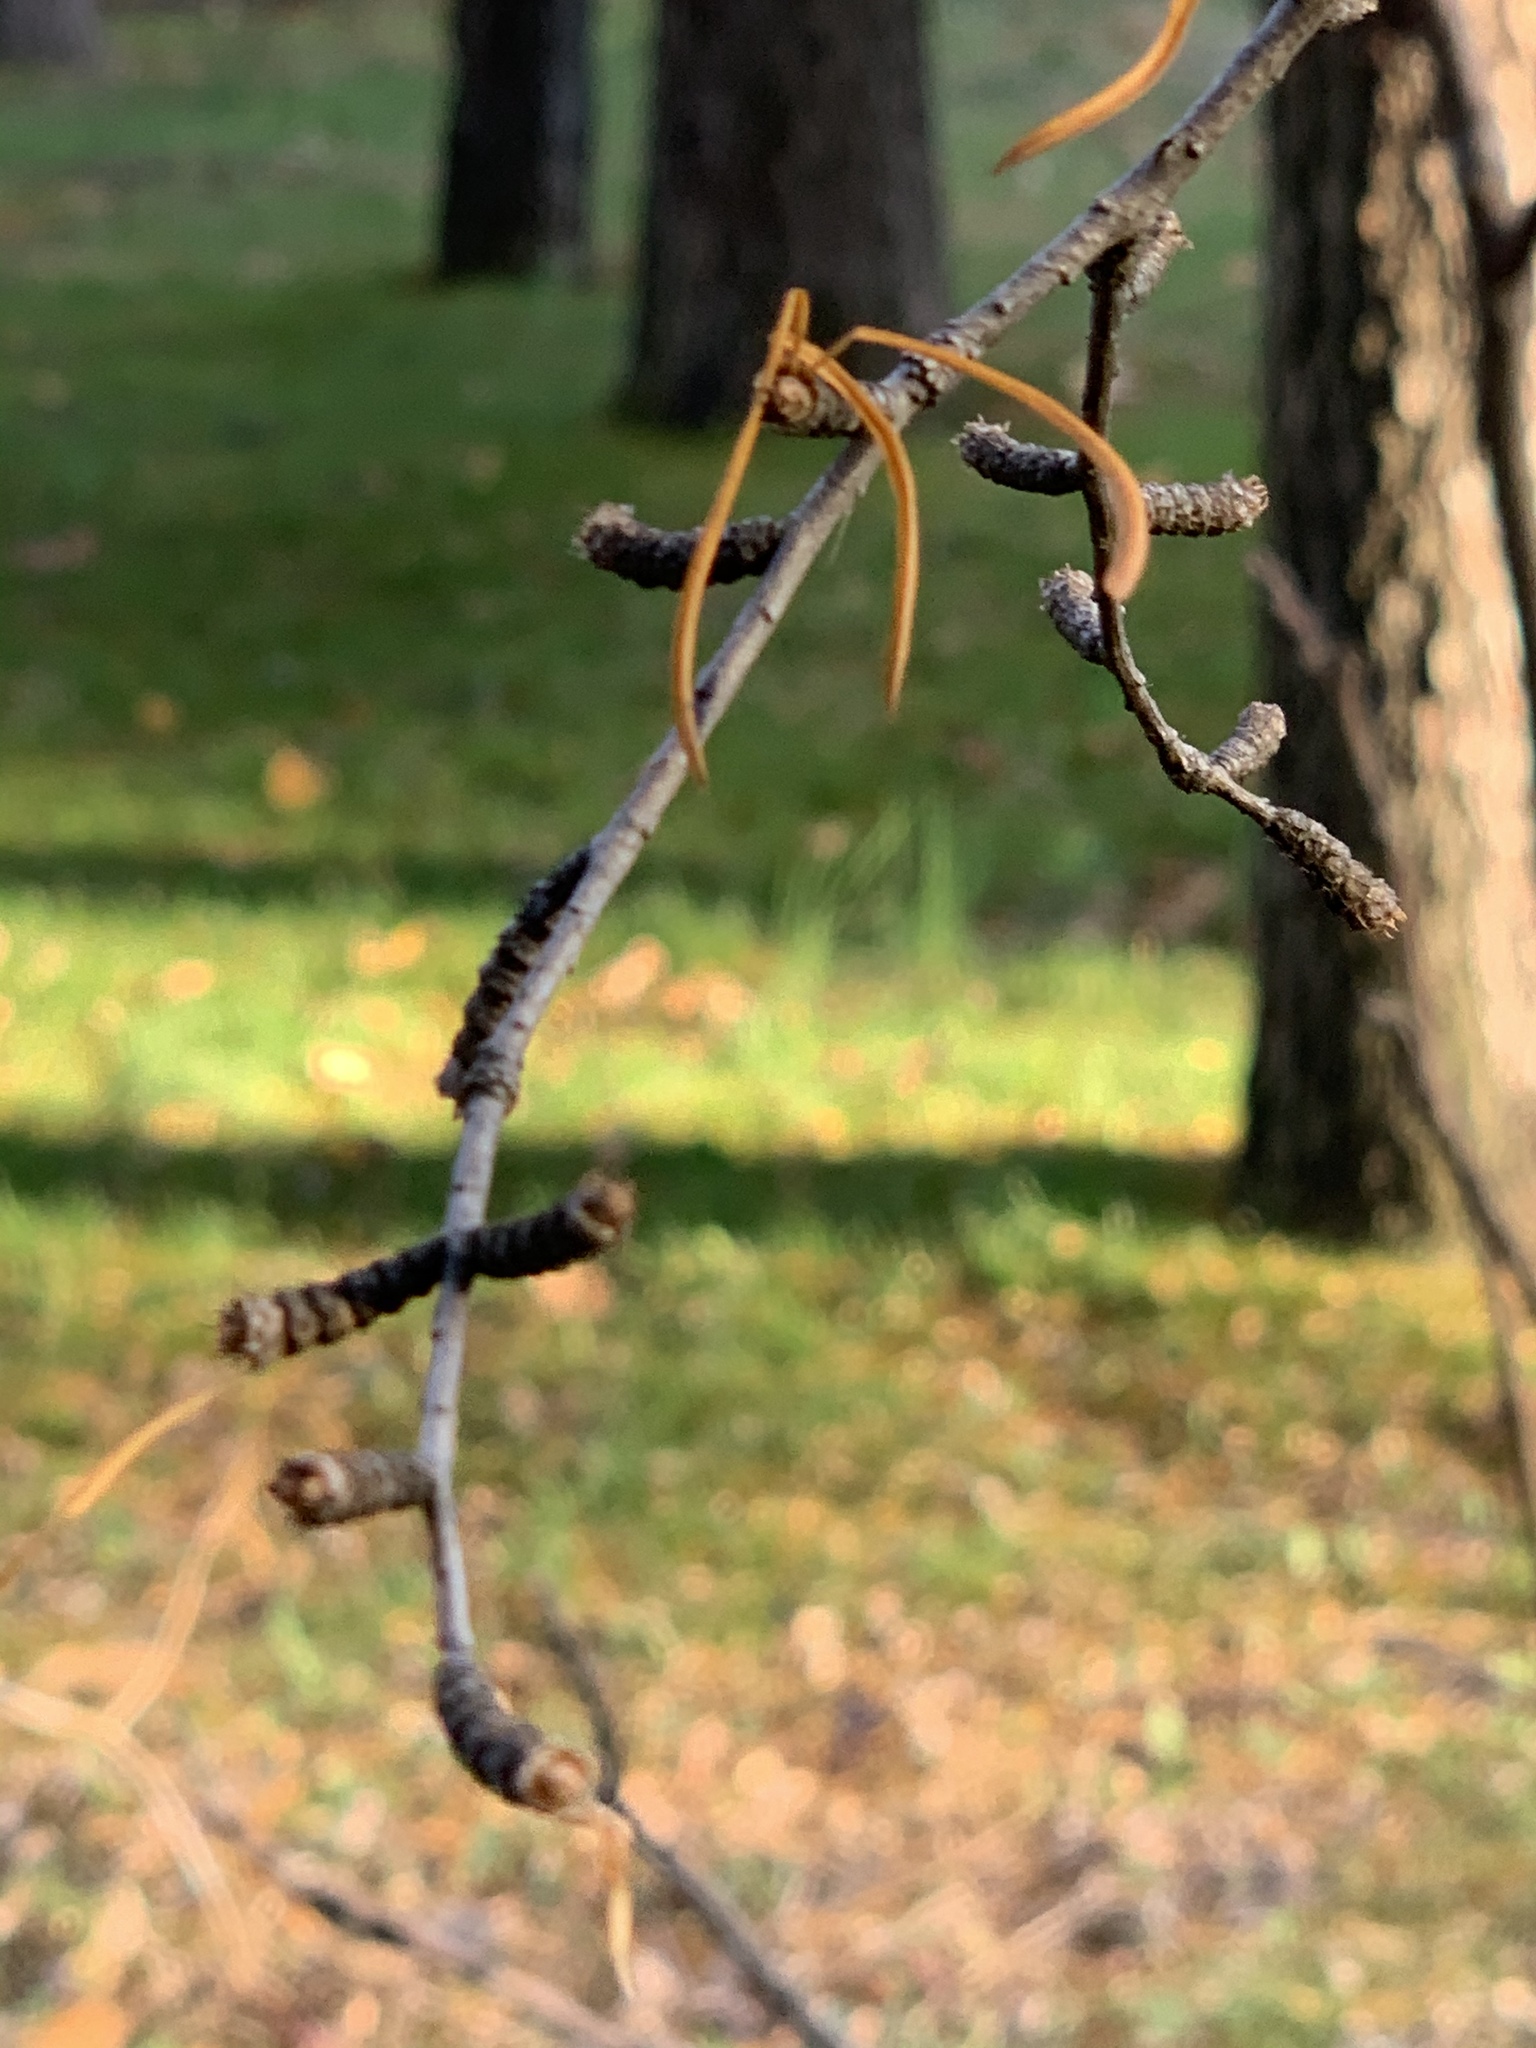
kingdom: Plantae
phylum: Tracheophyta
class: Pinopsida
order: Pinales
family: Pinaceae
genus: Pseudolarix
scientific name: Pseudolarix amabilis
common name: Chinese golden larch
